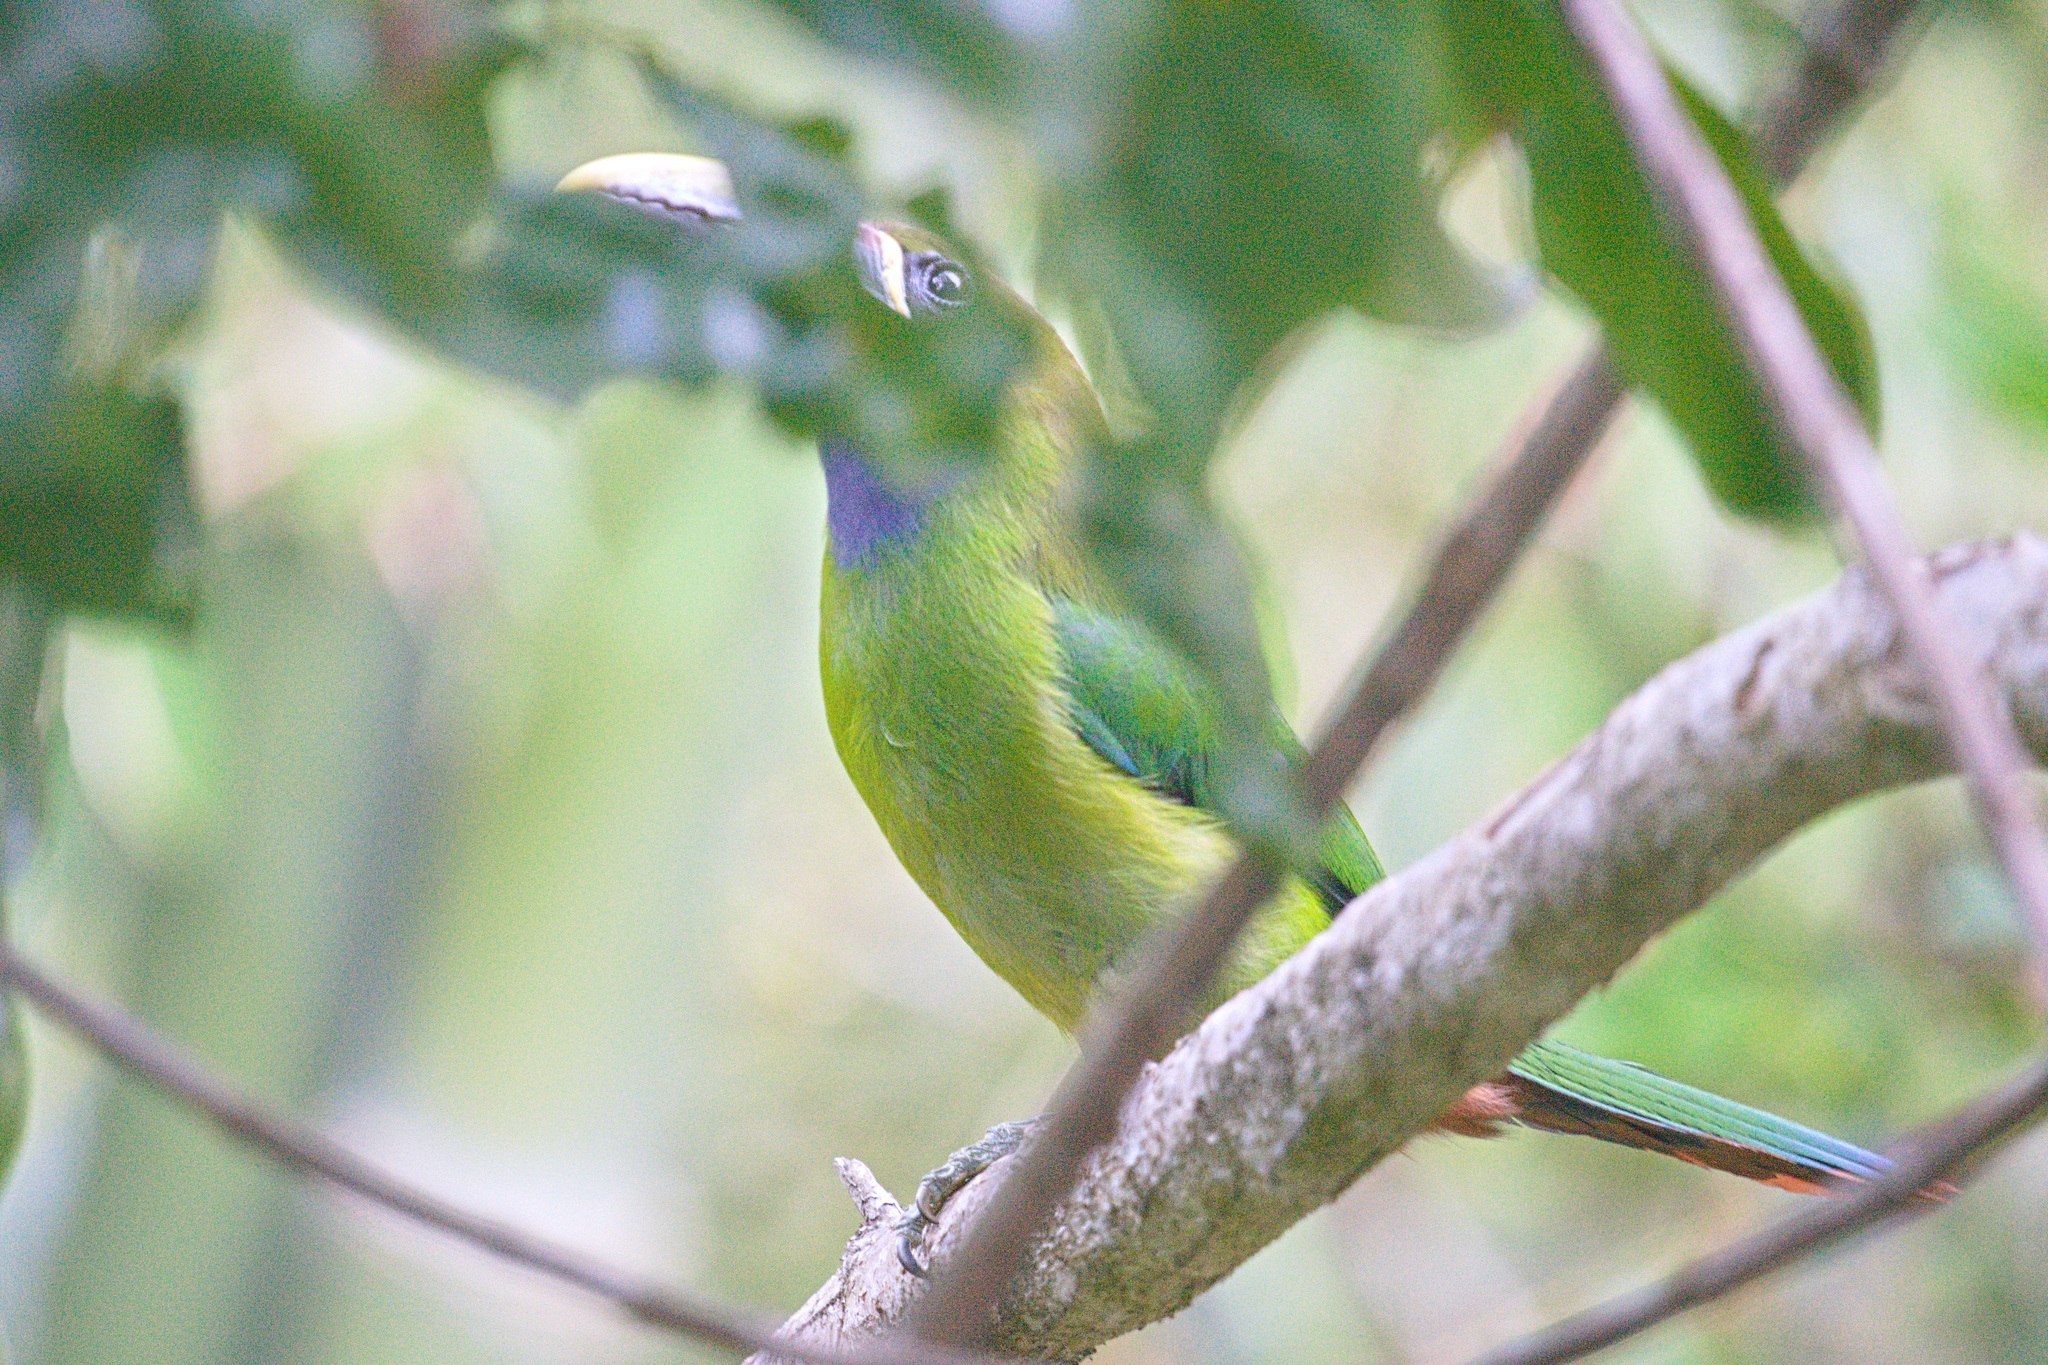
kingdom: Animalia
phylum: Chordata
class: Aves
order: Piciformes
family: Ramphastidae
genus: Aulacorhynchus
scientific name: Aulacorhynchus prasinus
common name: Emerald toucanet
